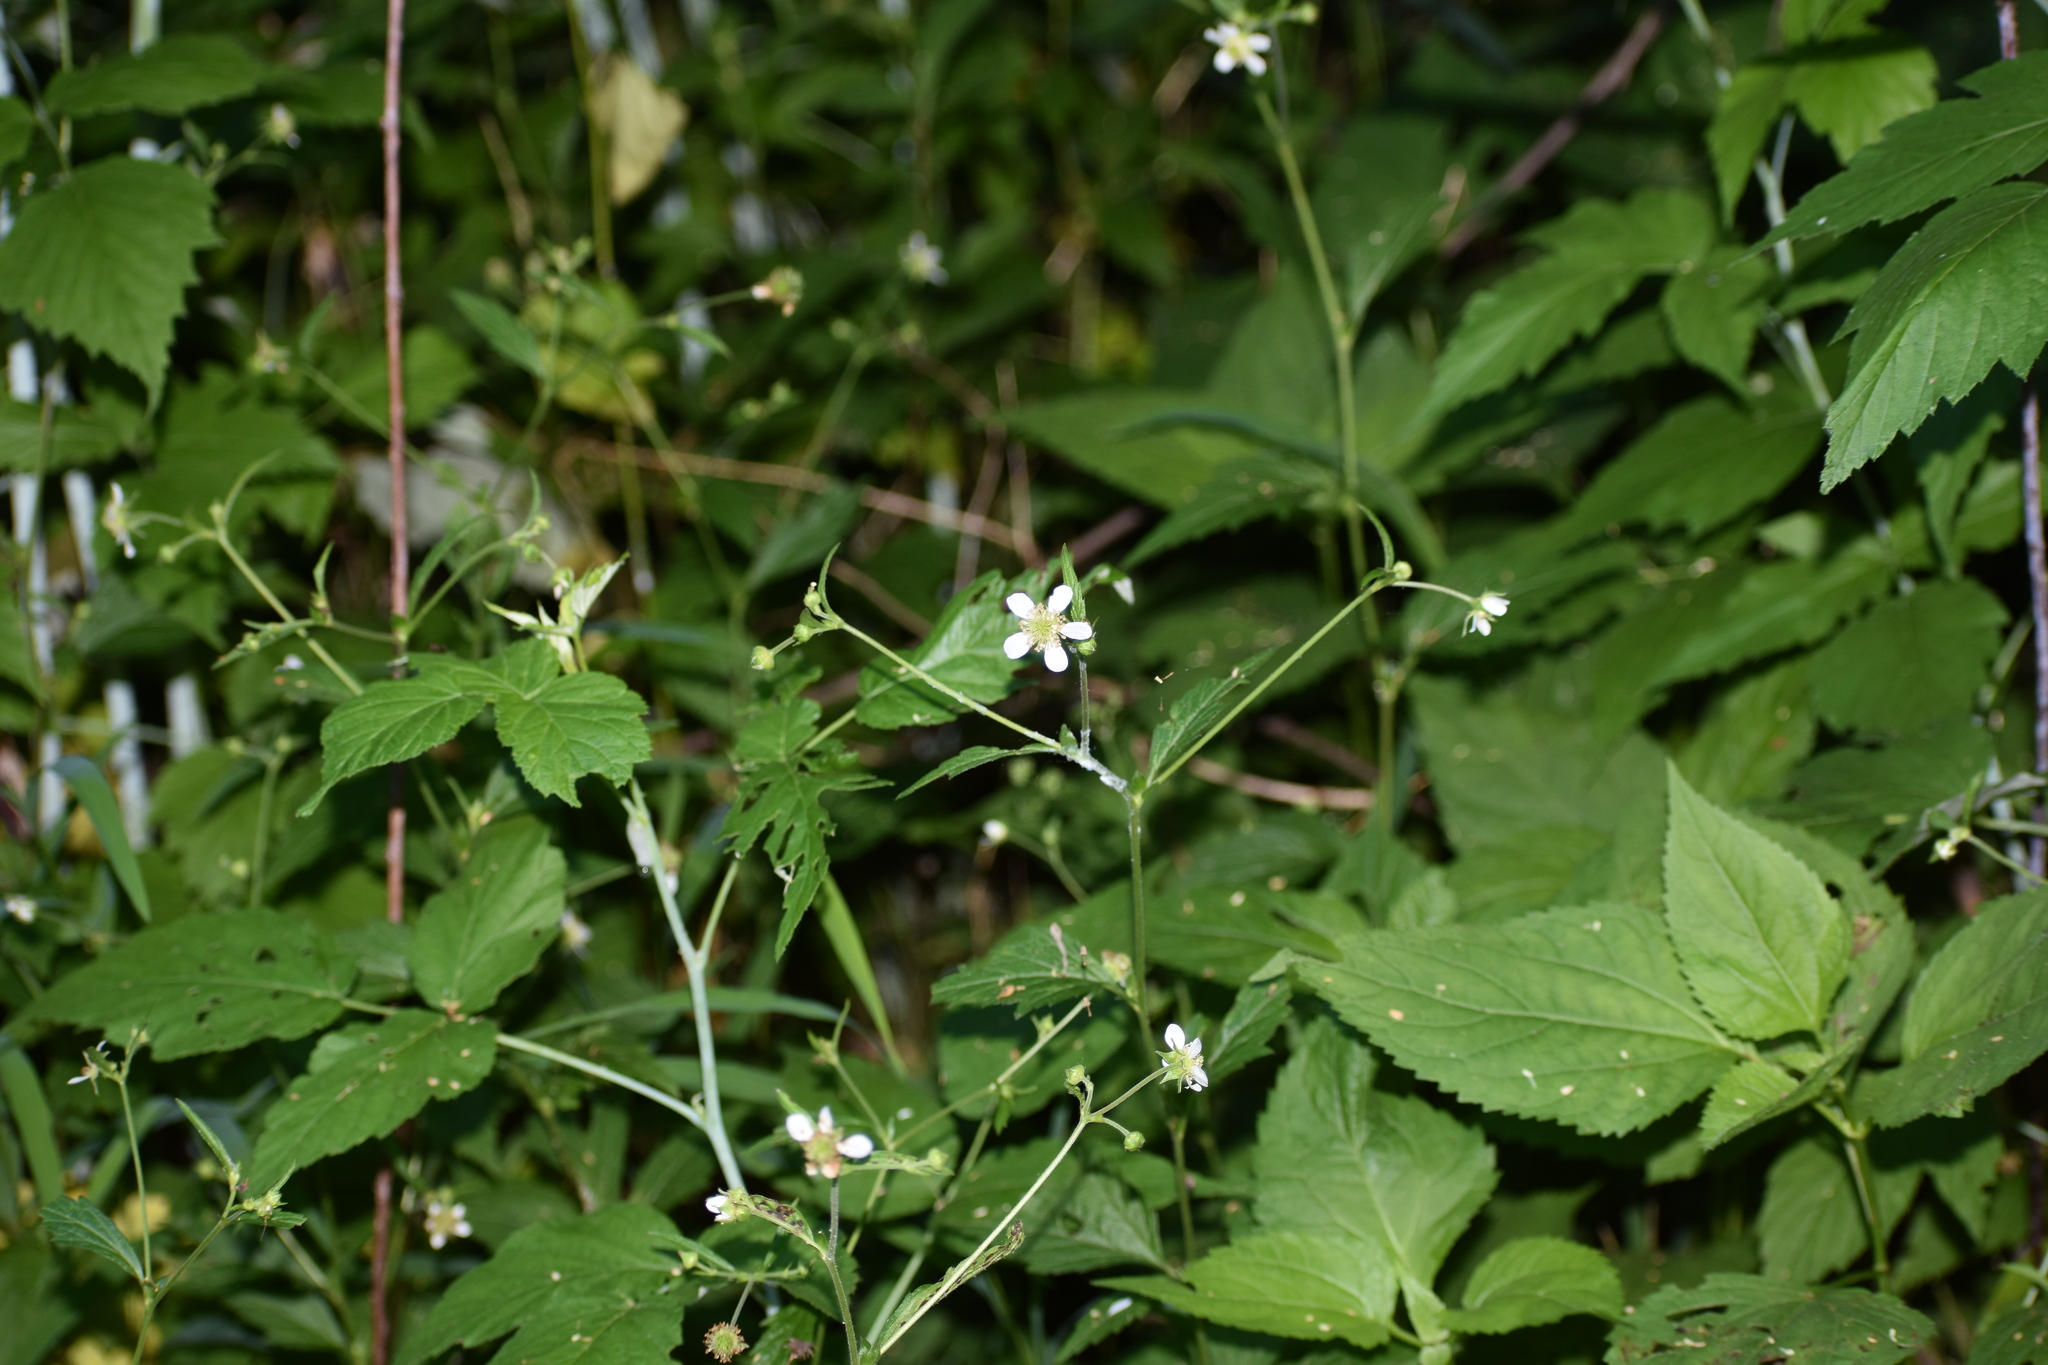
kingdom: Plantae
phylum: Tracheophyta
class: Magnoliopsida
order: Rosales
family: Rosaceae
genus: Geum
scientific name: Geum canadense
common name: White avens
